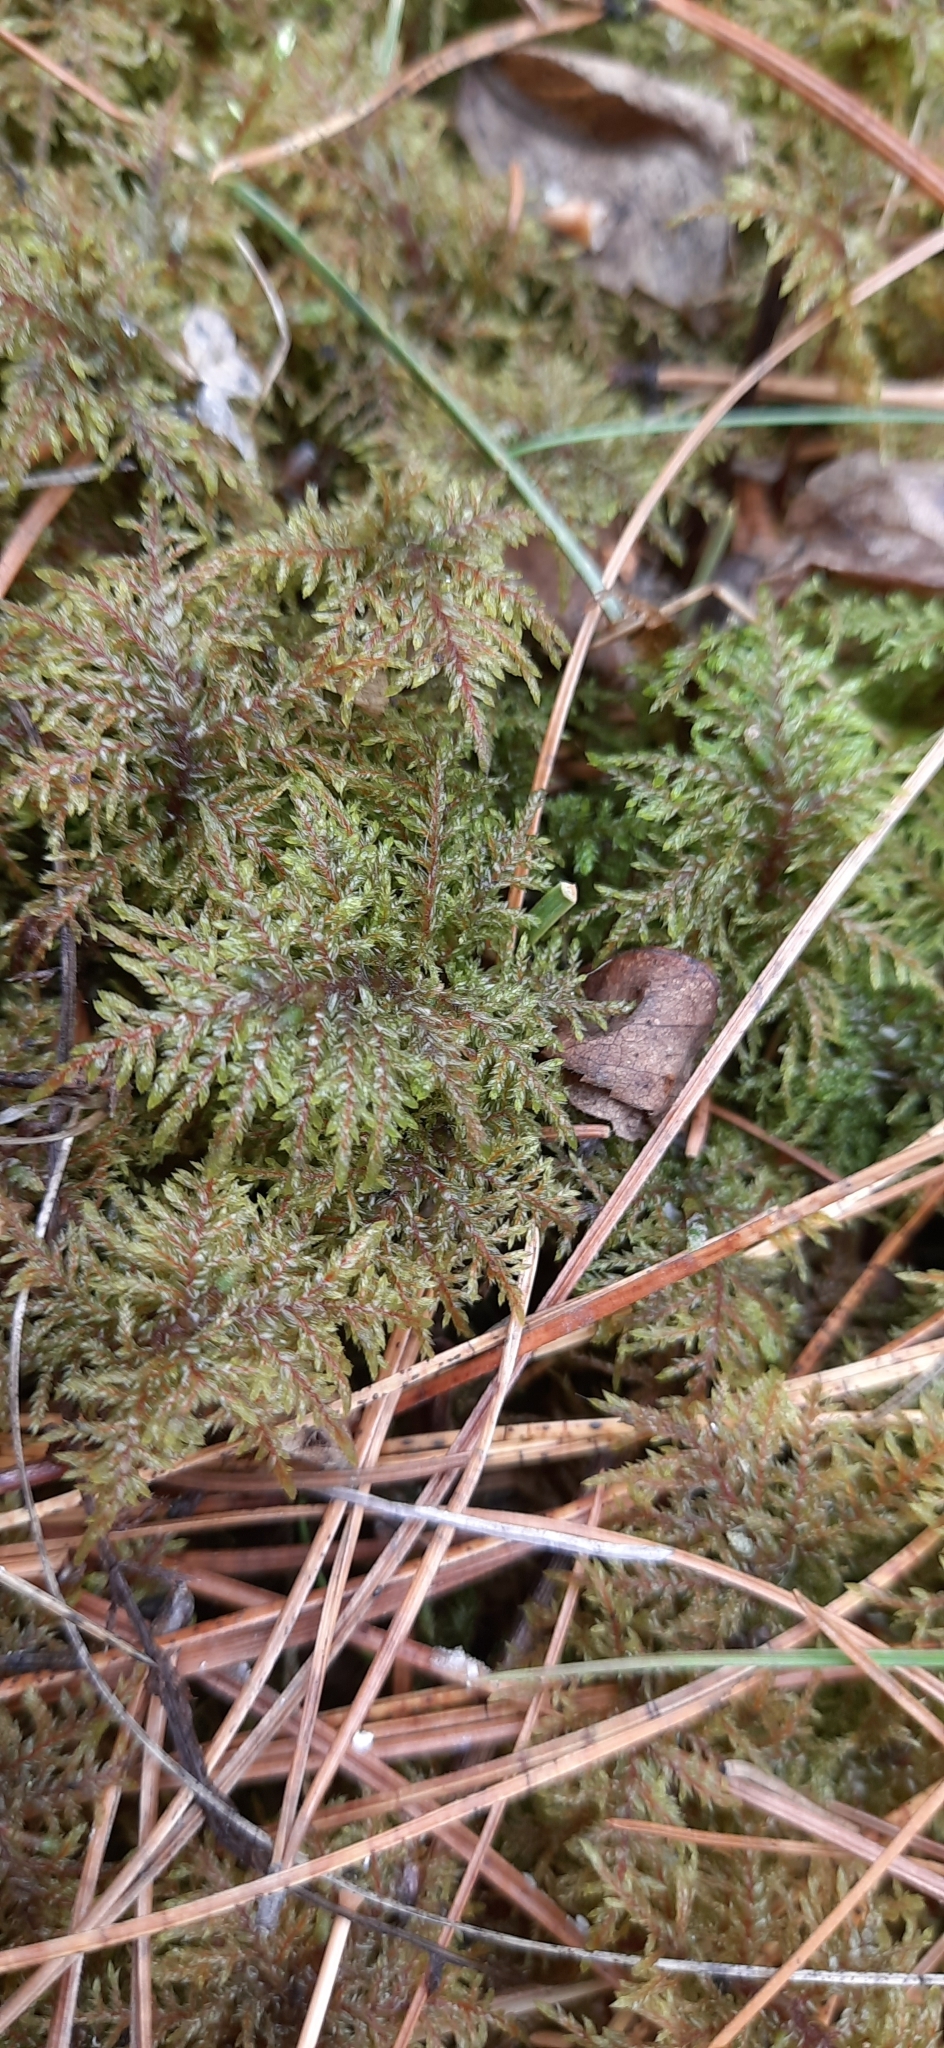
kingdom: Plantae
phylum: Bryophyta
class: Bryopsida
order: Hypnales
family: Hylocomiaceae
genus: Hylocomium
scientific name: Hylocomium splendens
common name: Stairstep moss
